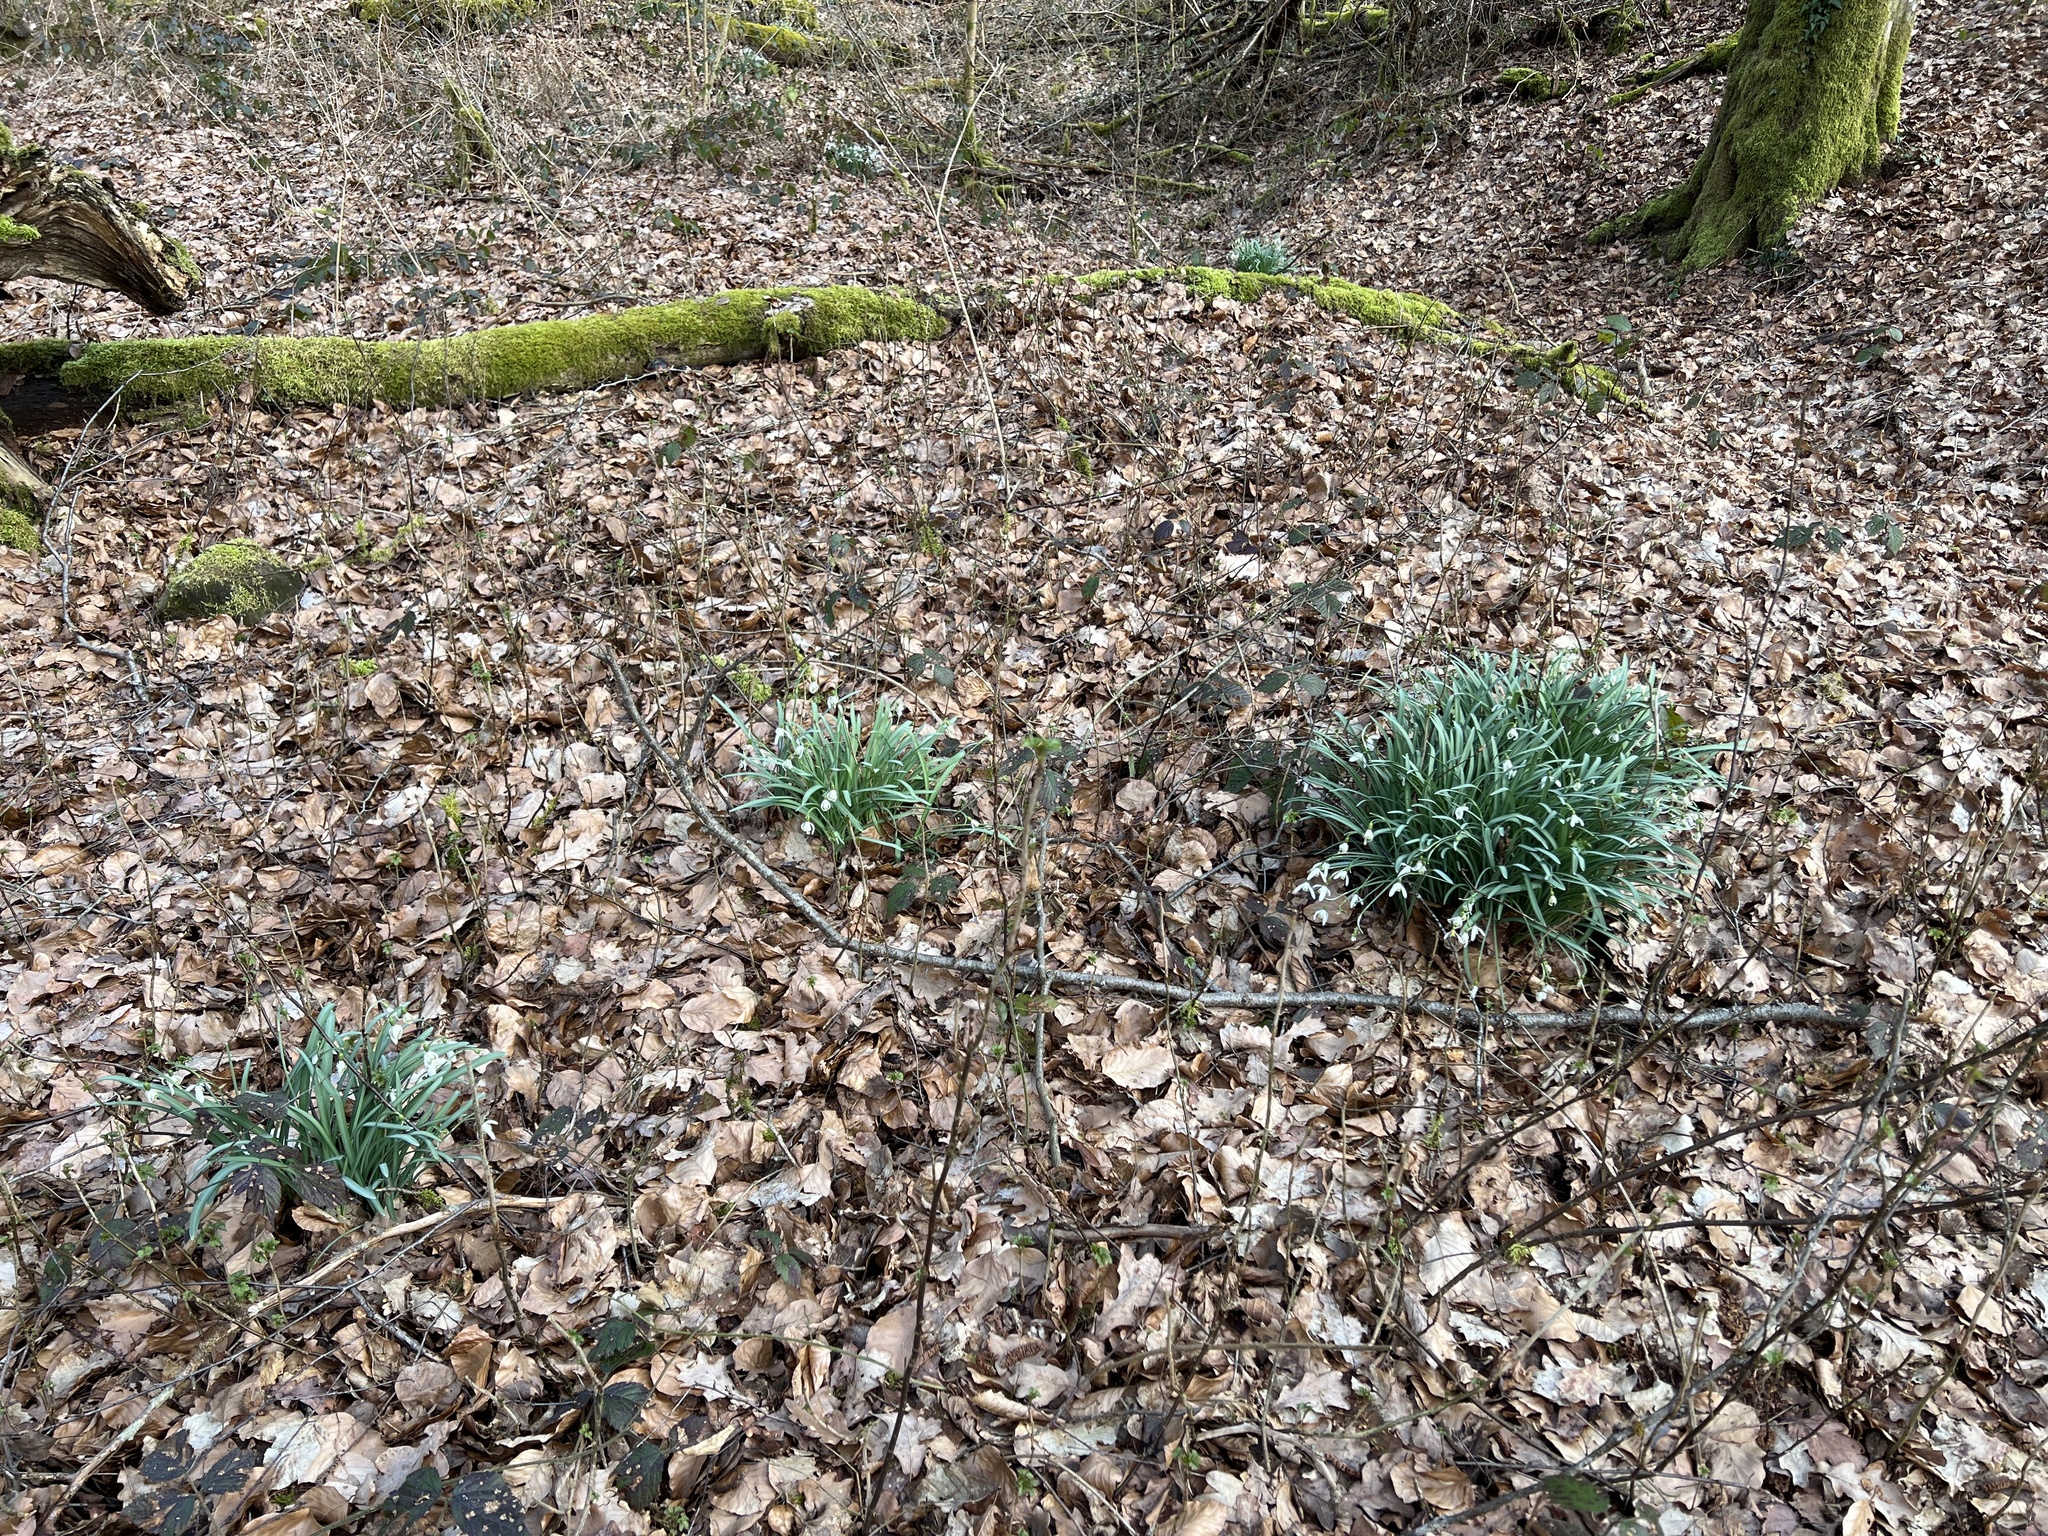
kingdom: Plantae
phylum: Tracheophyta
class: Liliopsida
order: Asparagales
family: Amaryllidaceae
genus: Galanthus
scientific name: Galanthus nivalis
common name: Snowdrop
